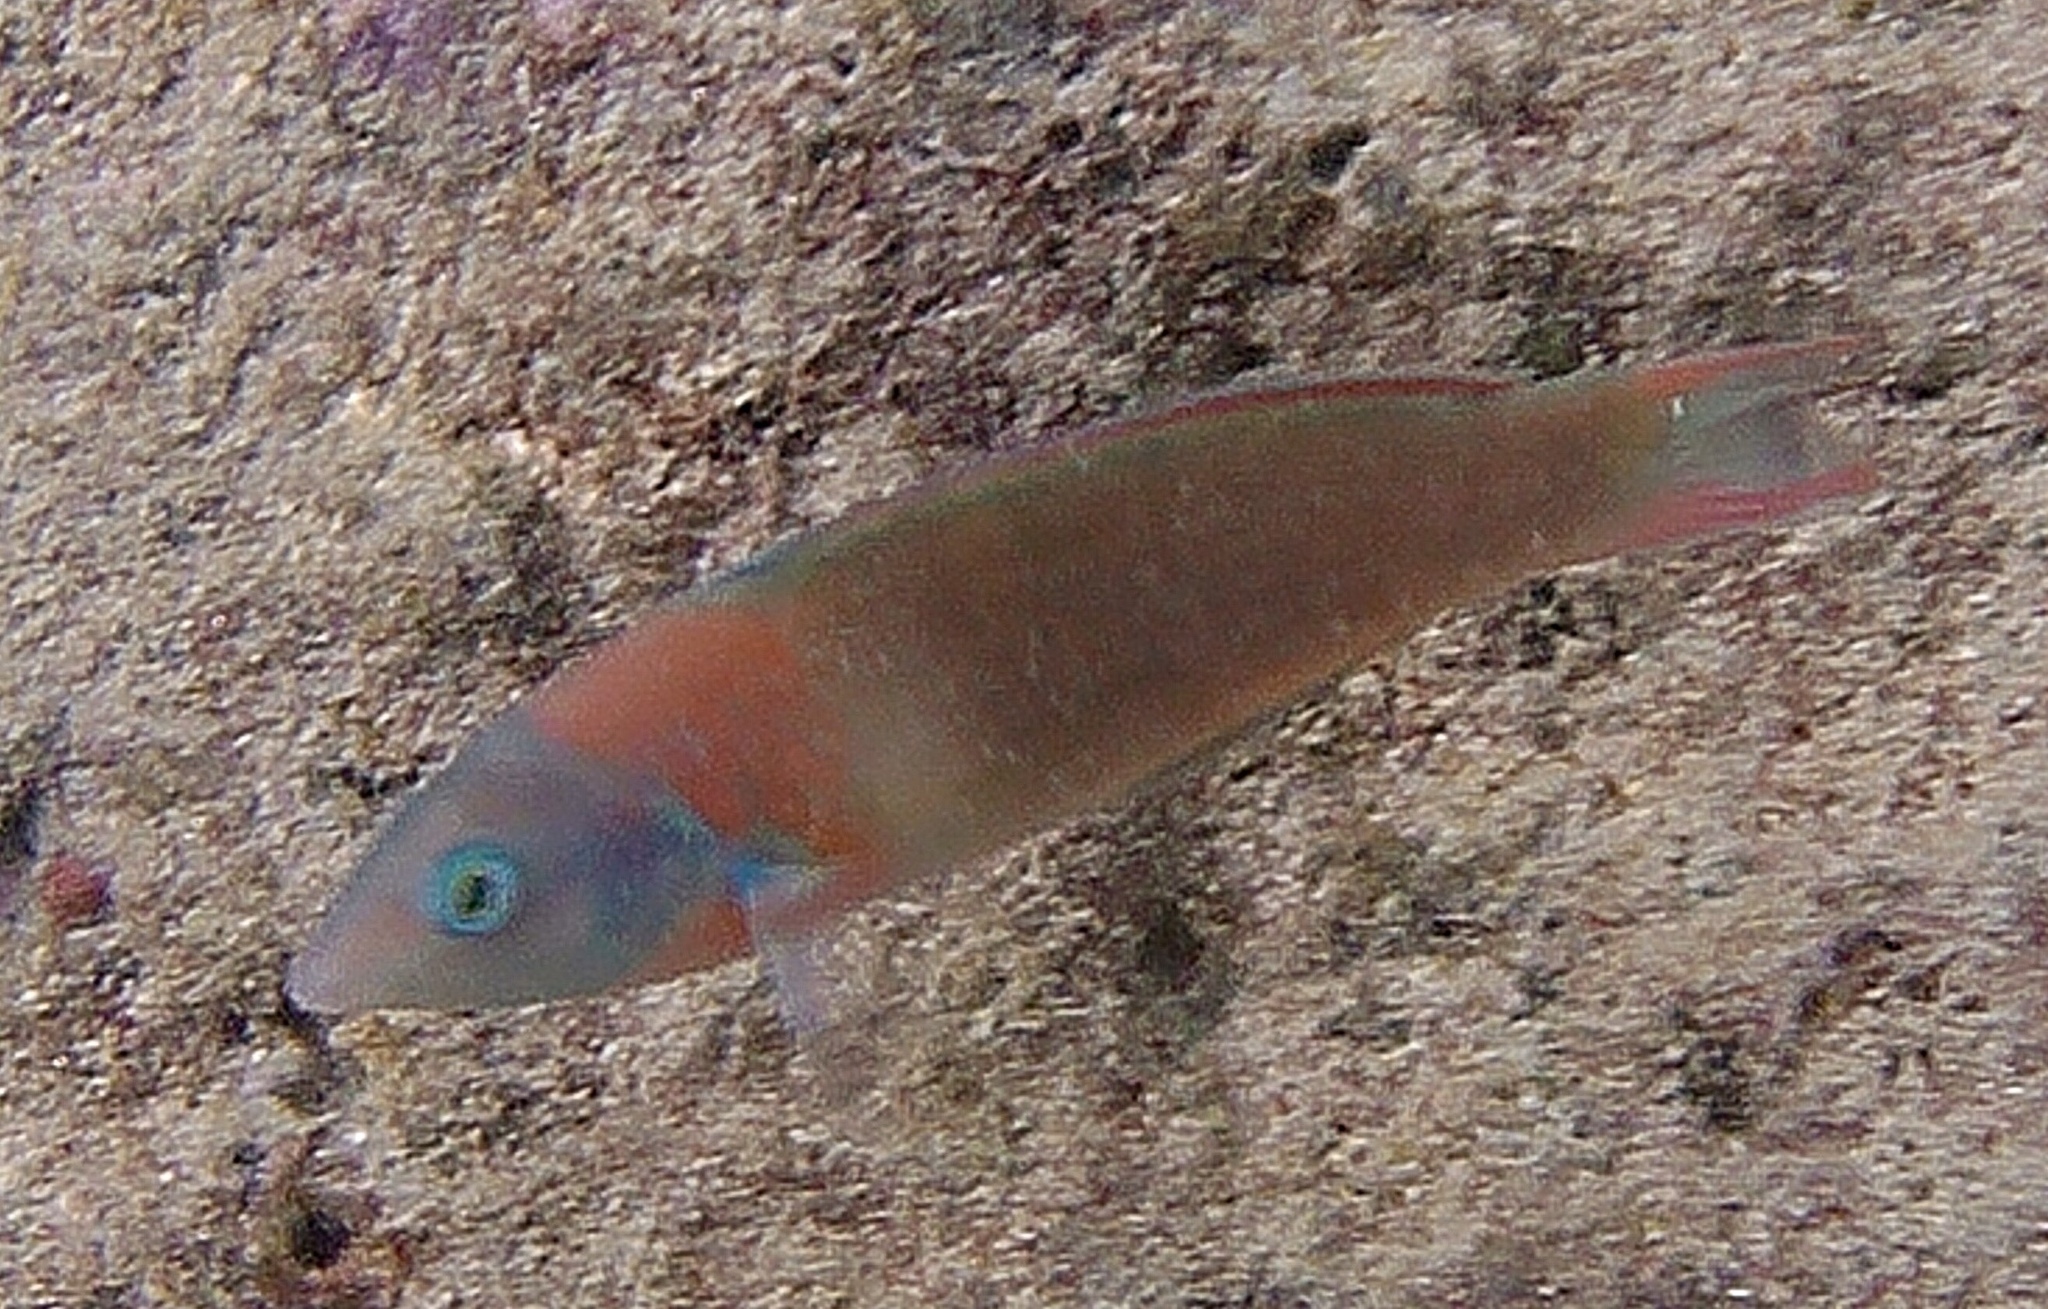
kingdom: Animalia
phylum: Chordata
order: Perciformes
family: Labridae
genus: Thalassoma
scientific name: Thalassoma duperrey
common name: Saddle wrasse
